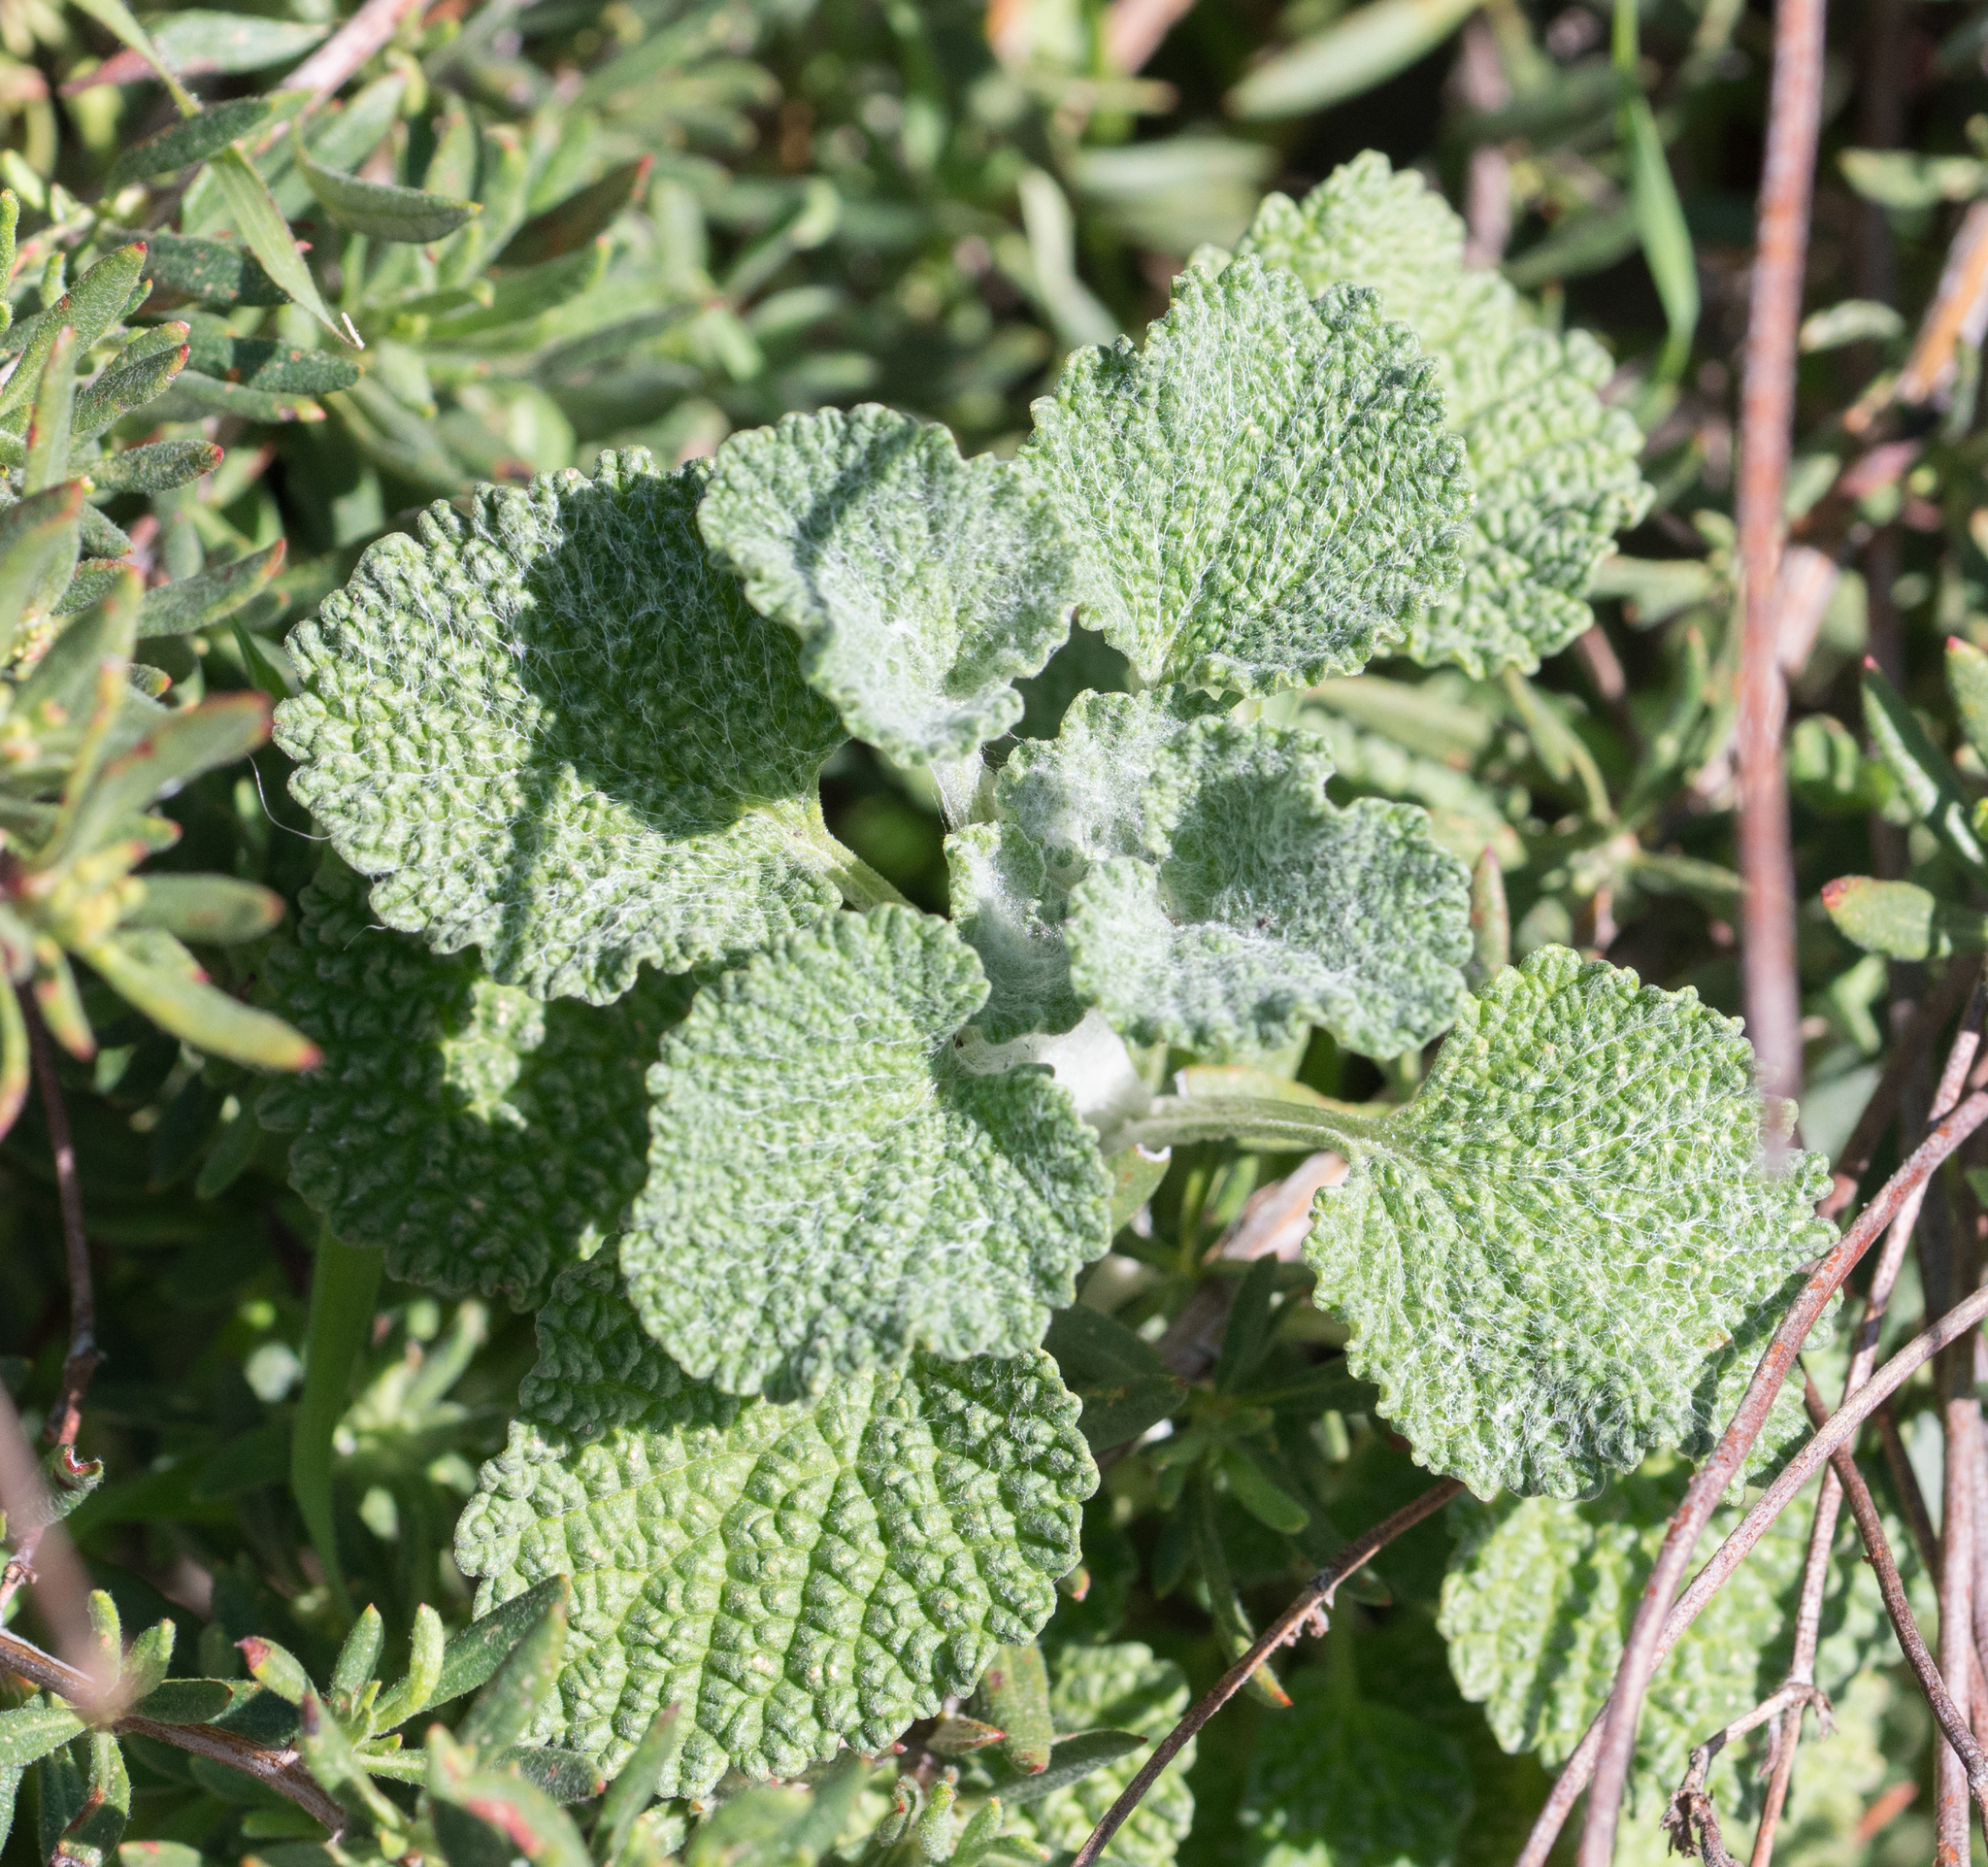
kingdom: Plantae
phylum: Tracheophyta
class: Magnoliopsida
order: Lamiales
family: Lamiaceae
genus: Marrubium
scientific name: Marrubium vulgare
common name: Horehound
